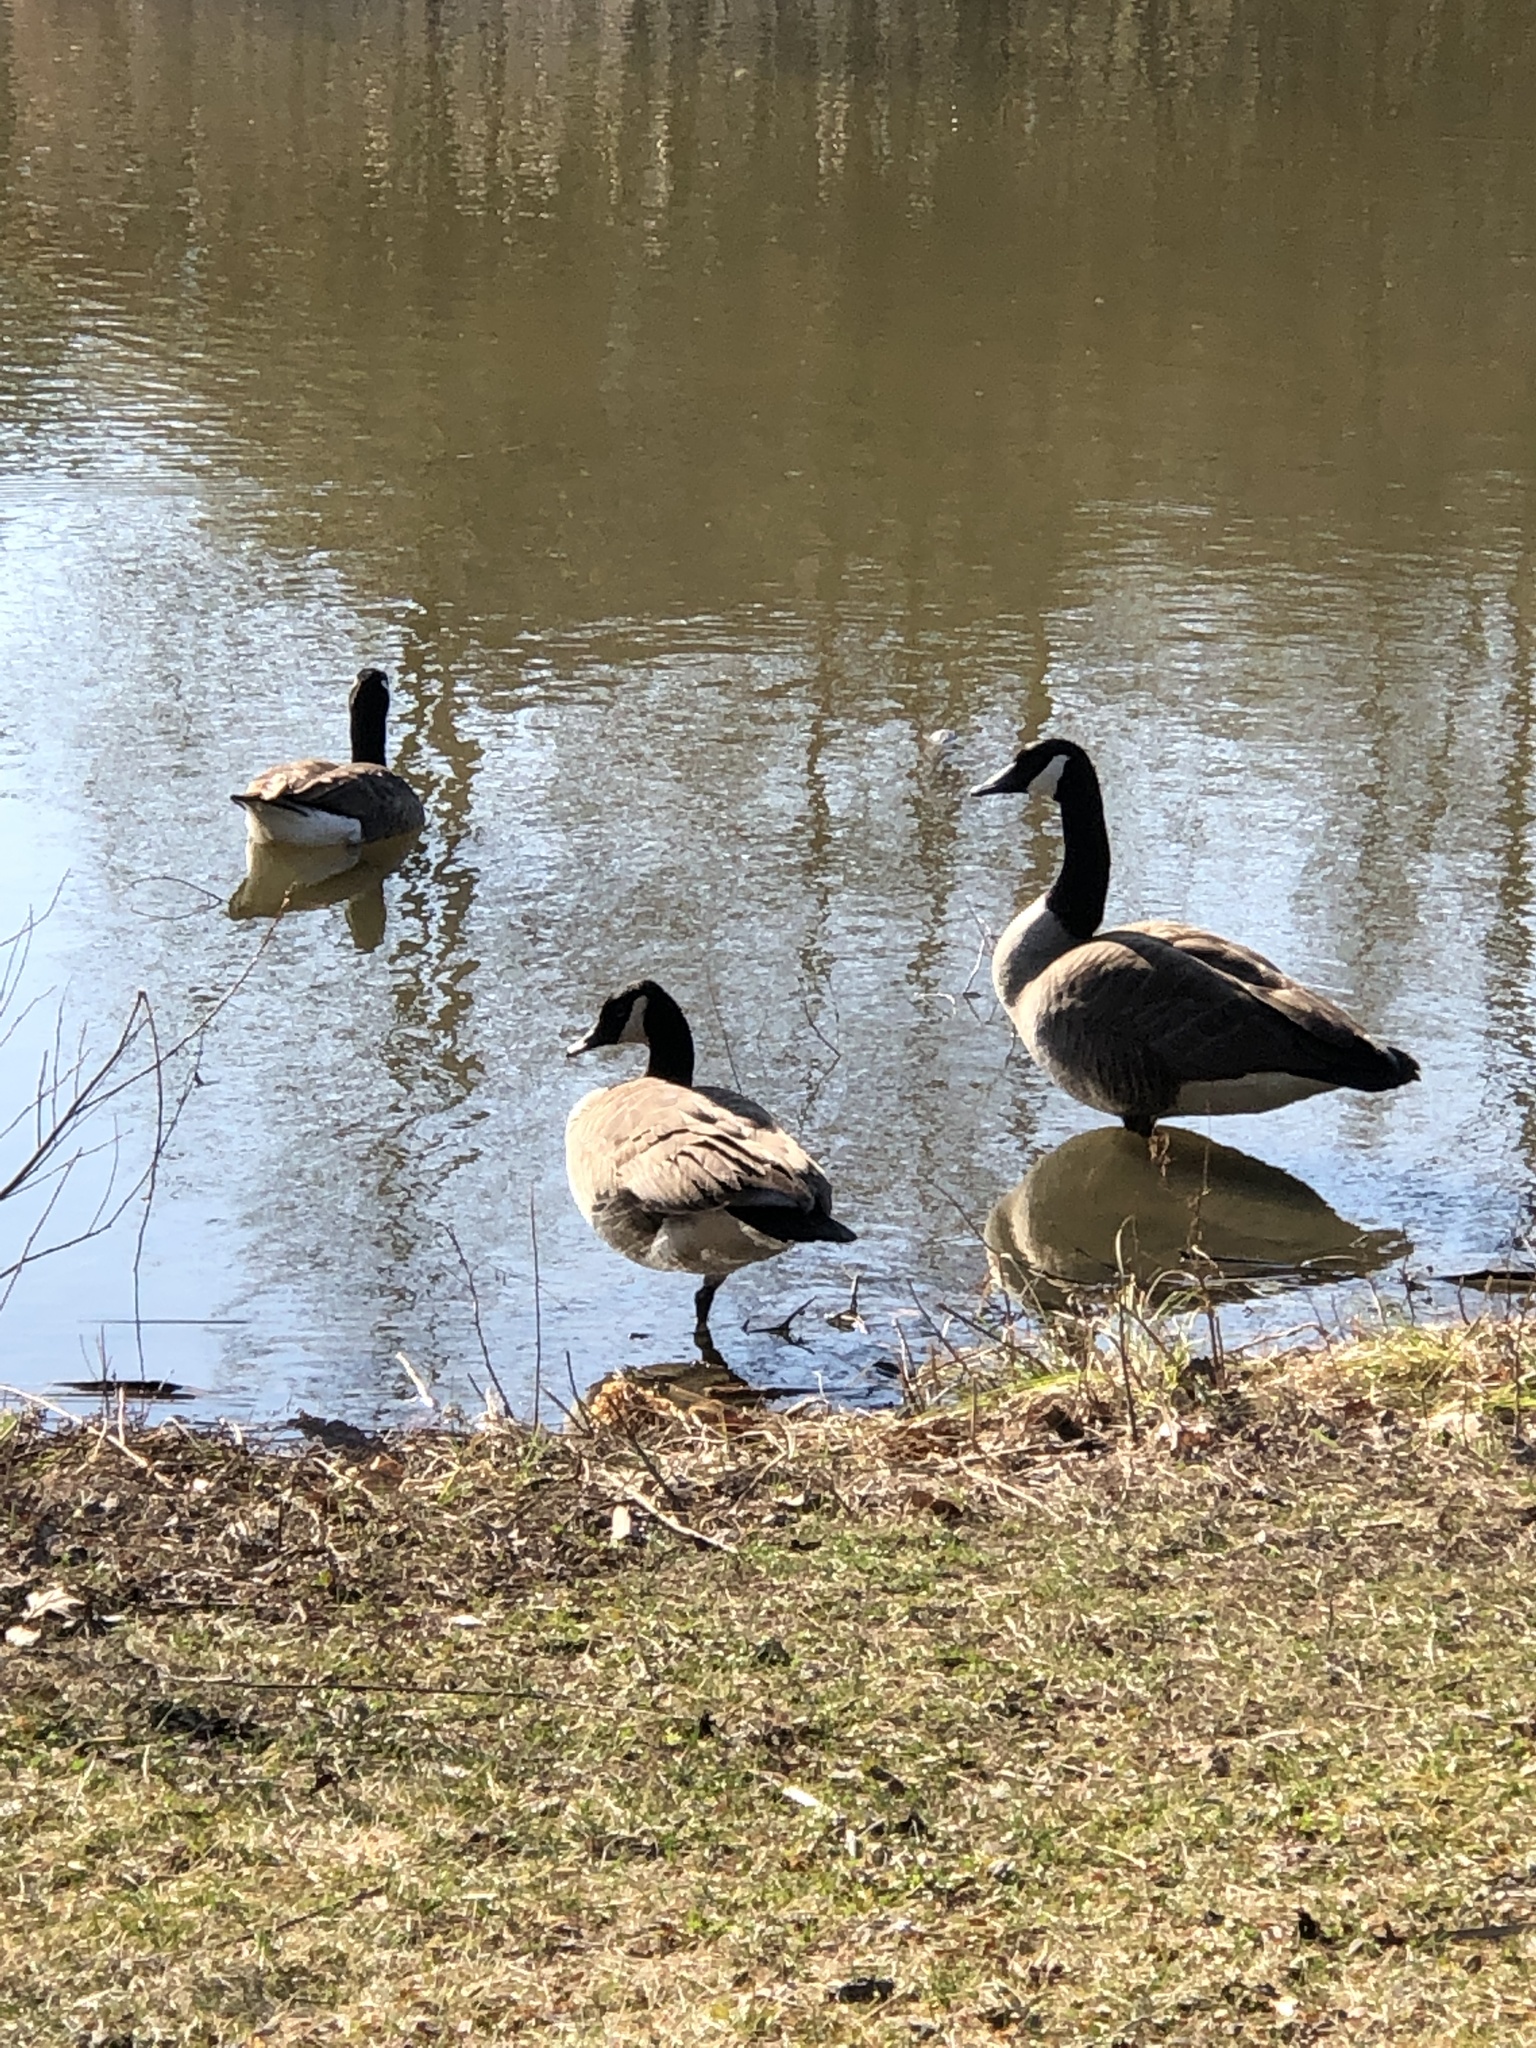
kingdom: Animalia
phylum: Chordata
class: Aves
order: Anseriformes
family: Anatidae
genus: Branta
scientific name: Branta canadensis
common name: Canada goose
